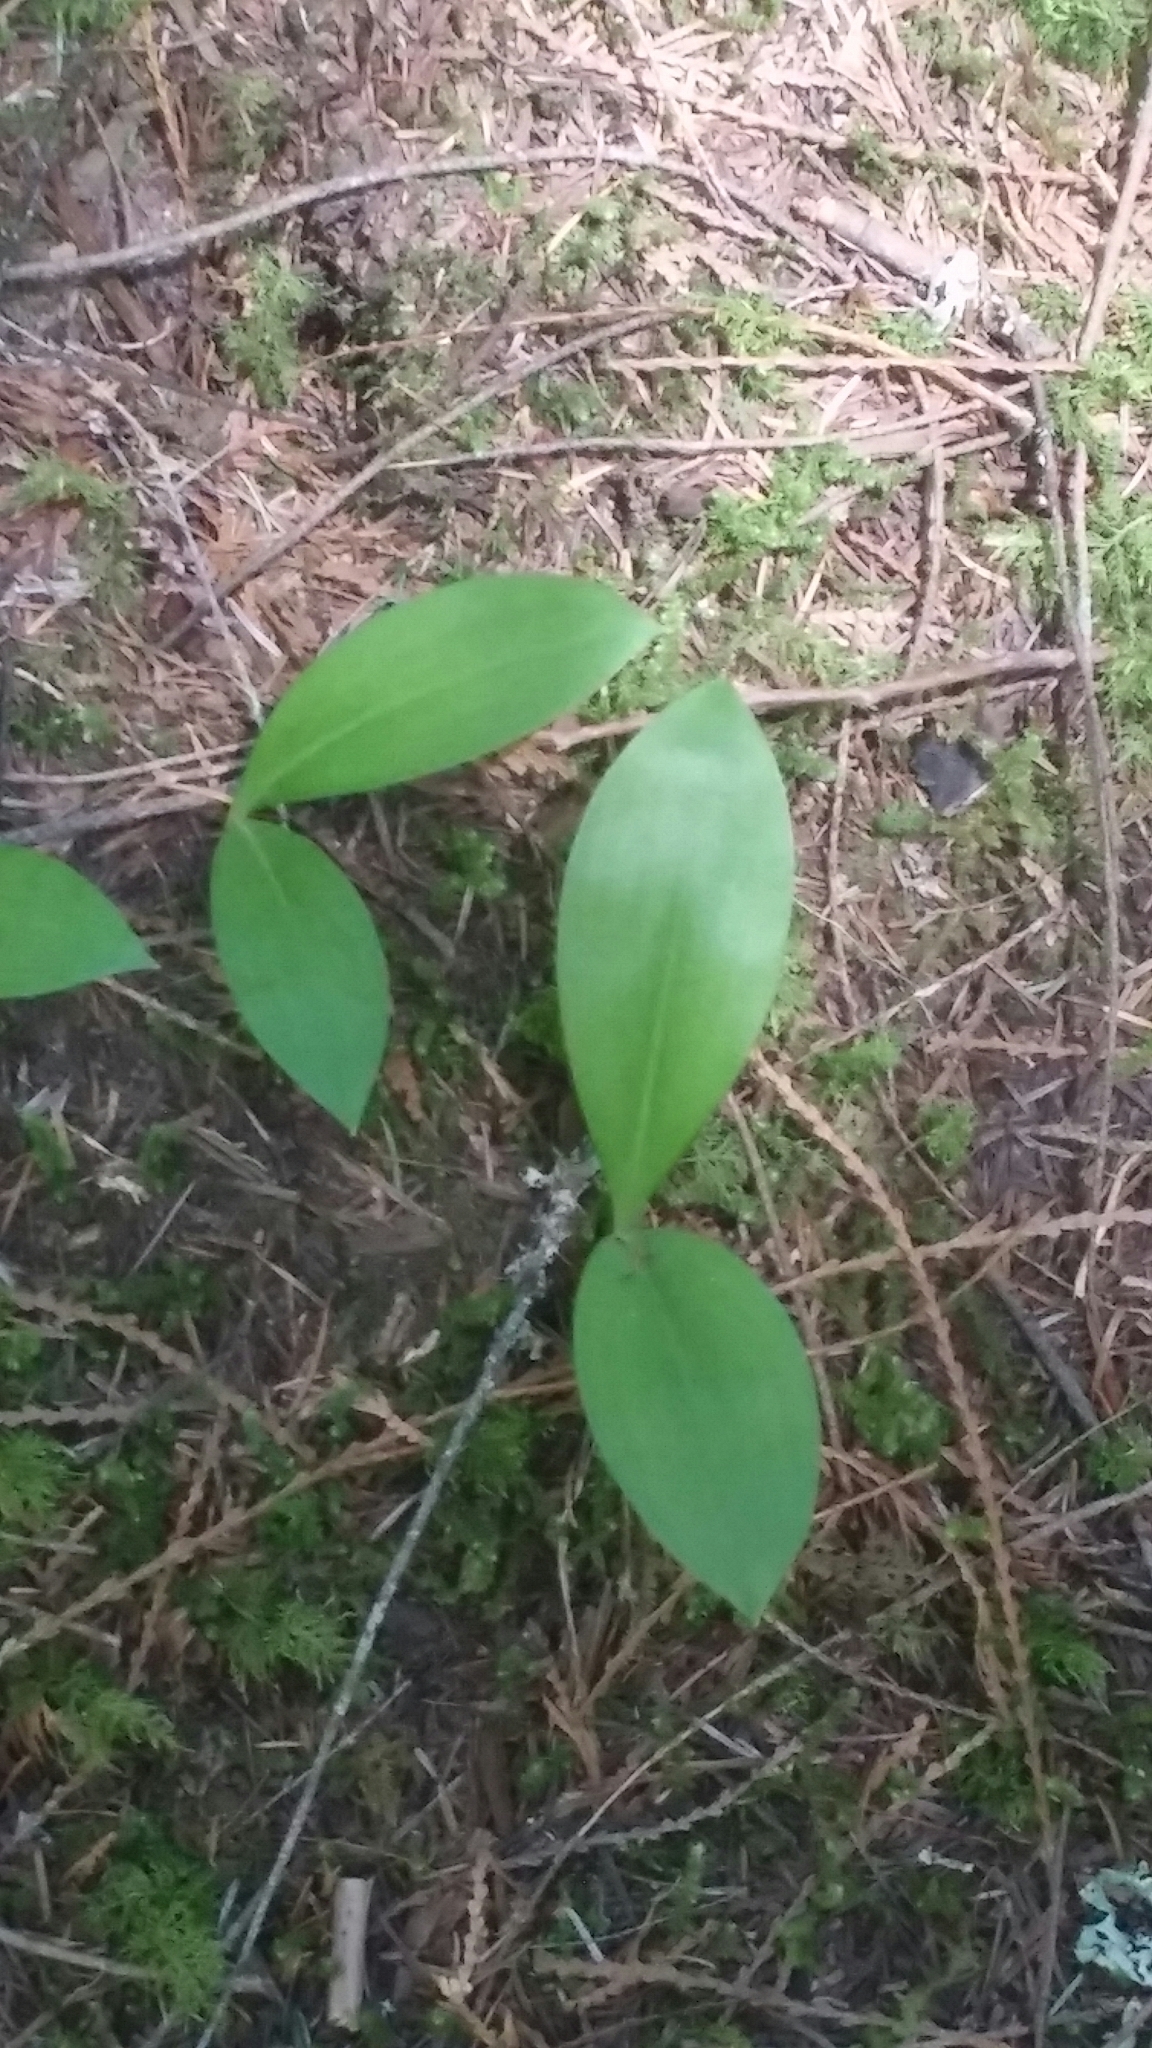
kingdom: Plantae
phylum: Tracheophyta
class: Liliopsida
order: Liliales
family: Liliaceae
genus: Clintonia
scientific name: Clintonia uniflora
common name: Queen's cup
